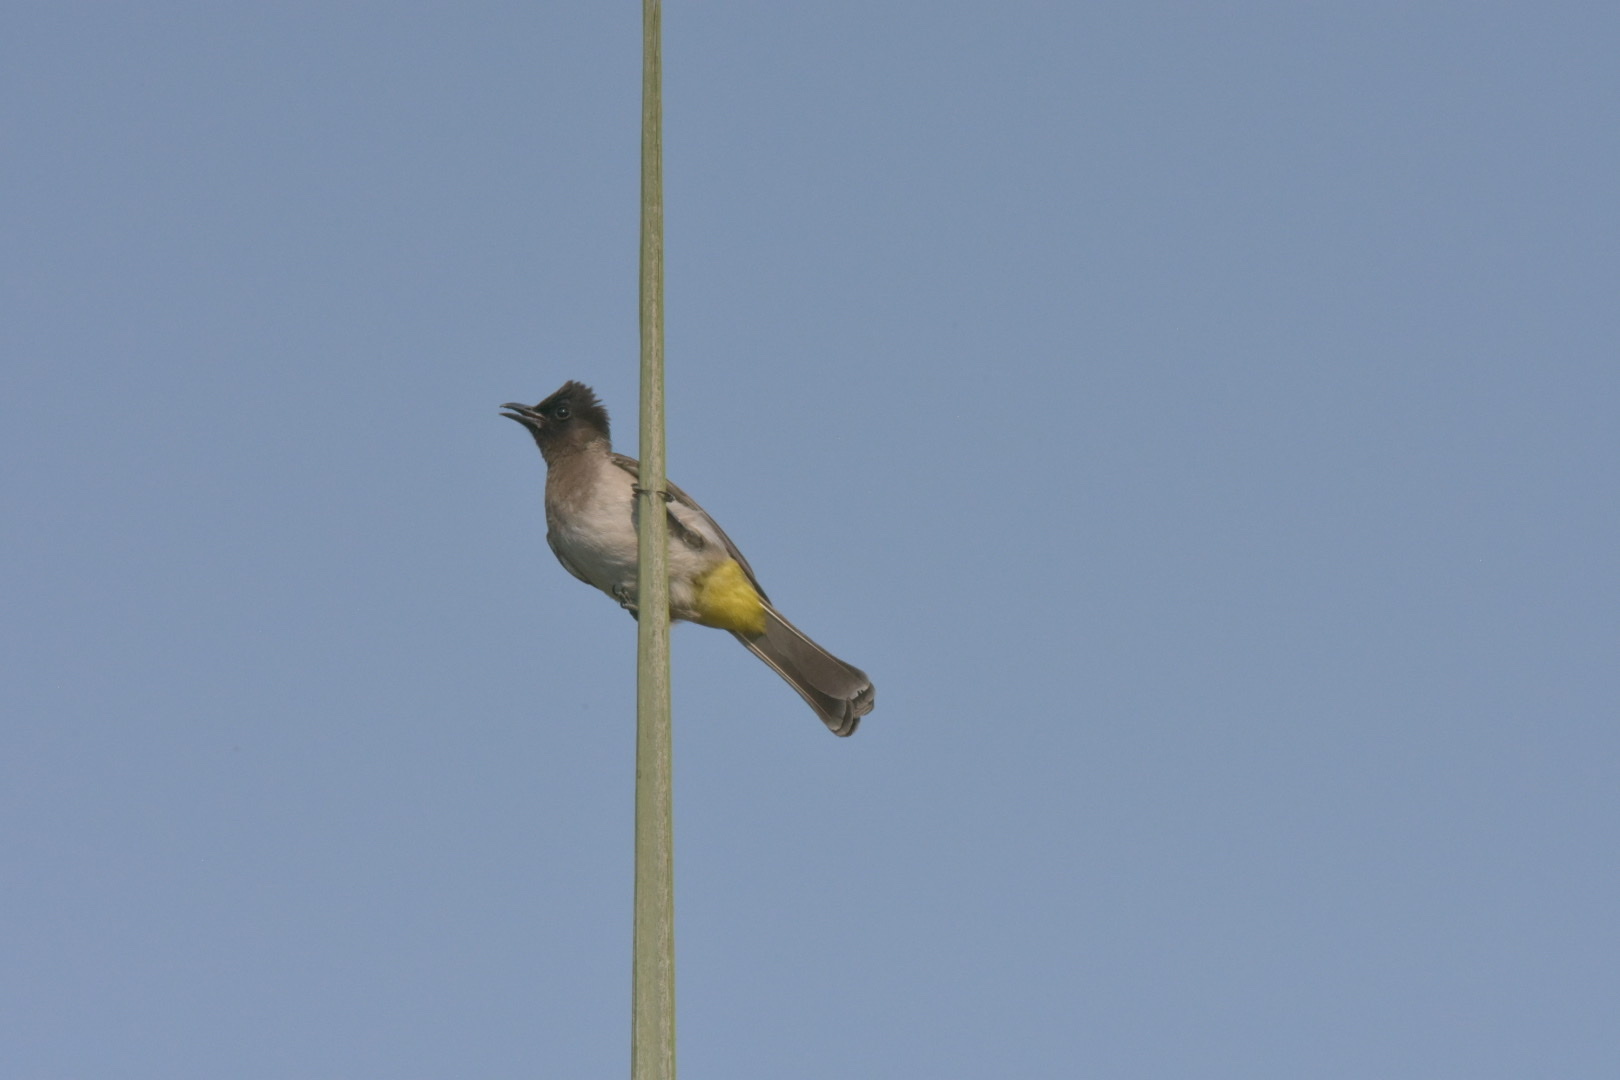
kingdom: Animalia
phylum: Chordata
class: Aves
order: Passeriformes
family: Pycnonotidae
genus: Pycnonotus
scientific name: Pycnonotus barbatus
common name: Common bulbul
